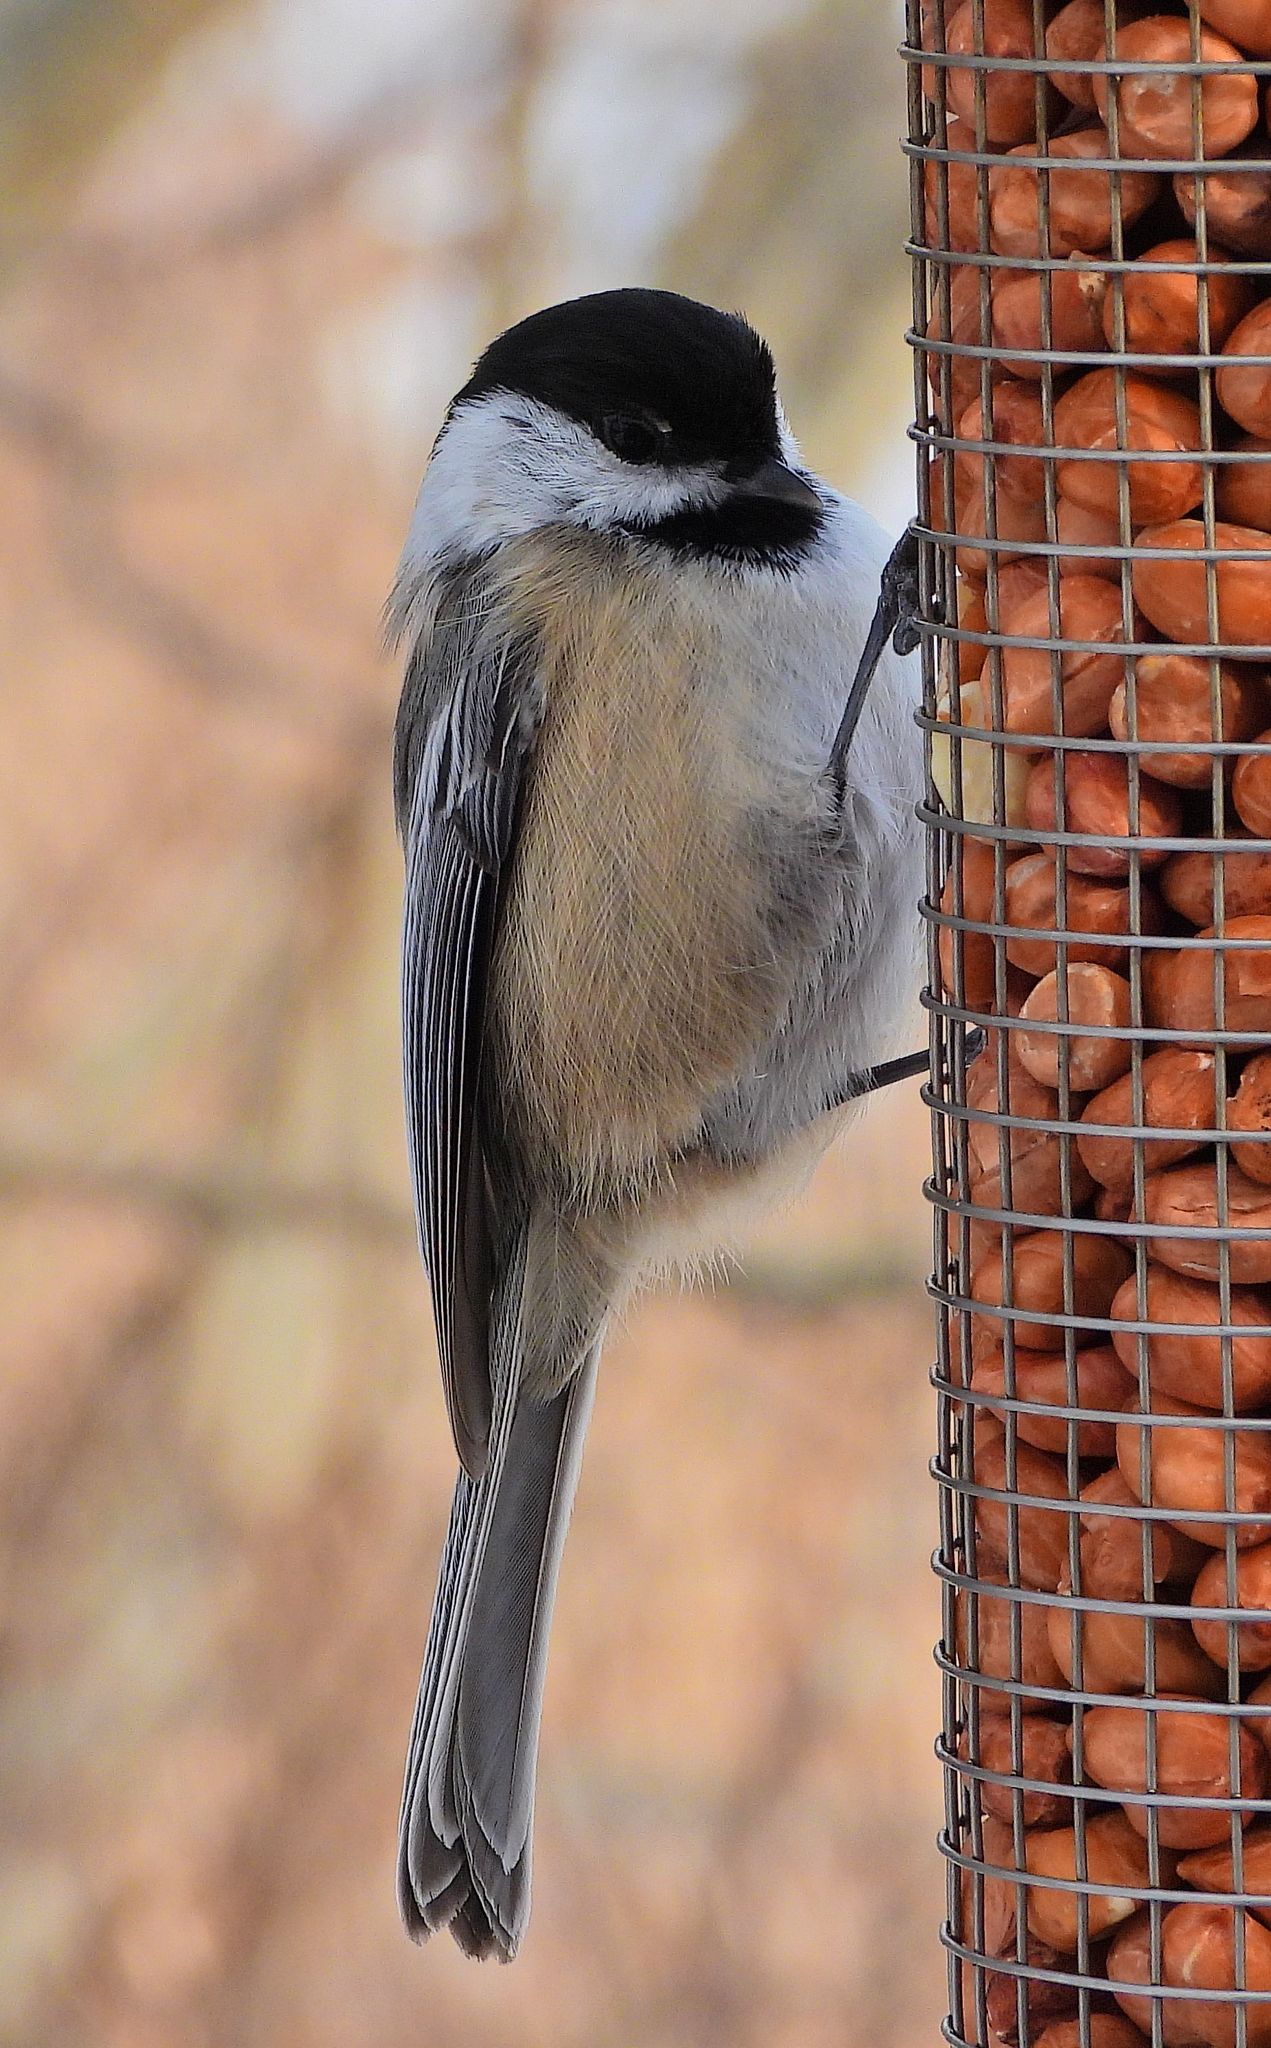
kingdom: Animalia
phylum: Chordata
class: Aves
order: Passeriformes
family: Paridae
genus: Poecile
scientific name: Poecile atricapillus
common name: Black-capped chickadee
